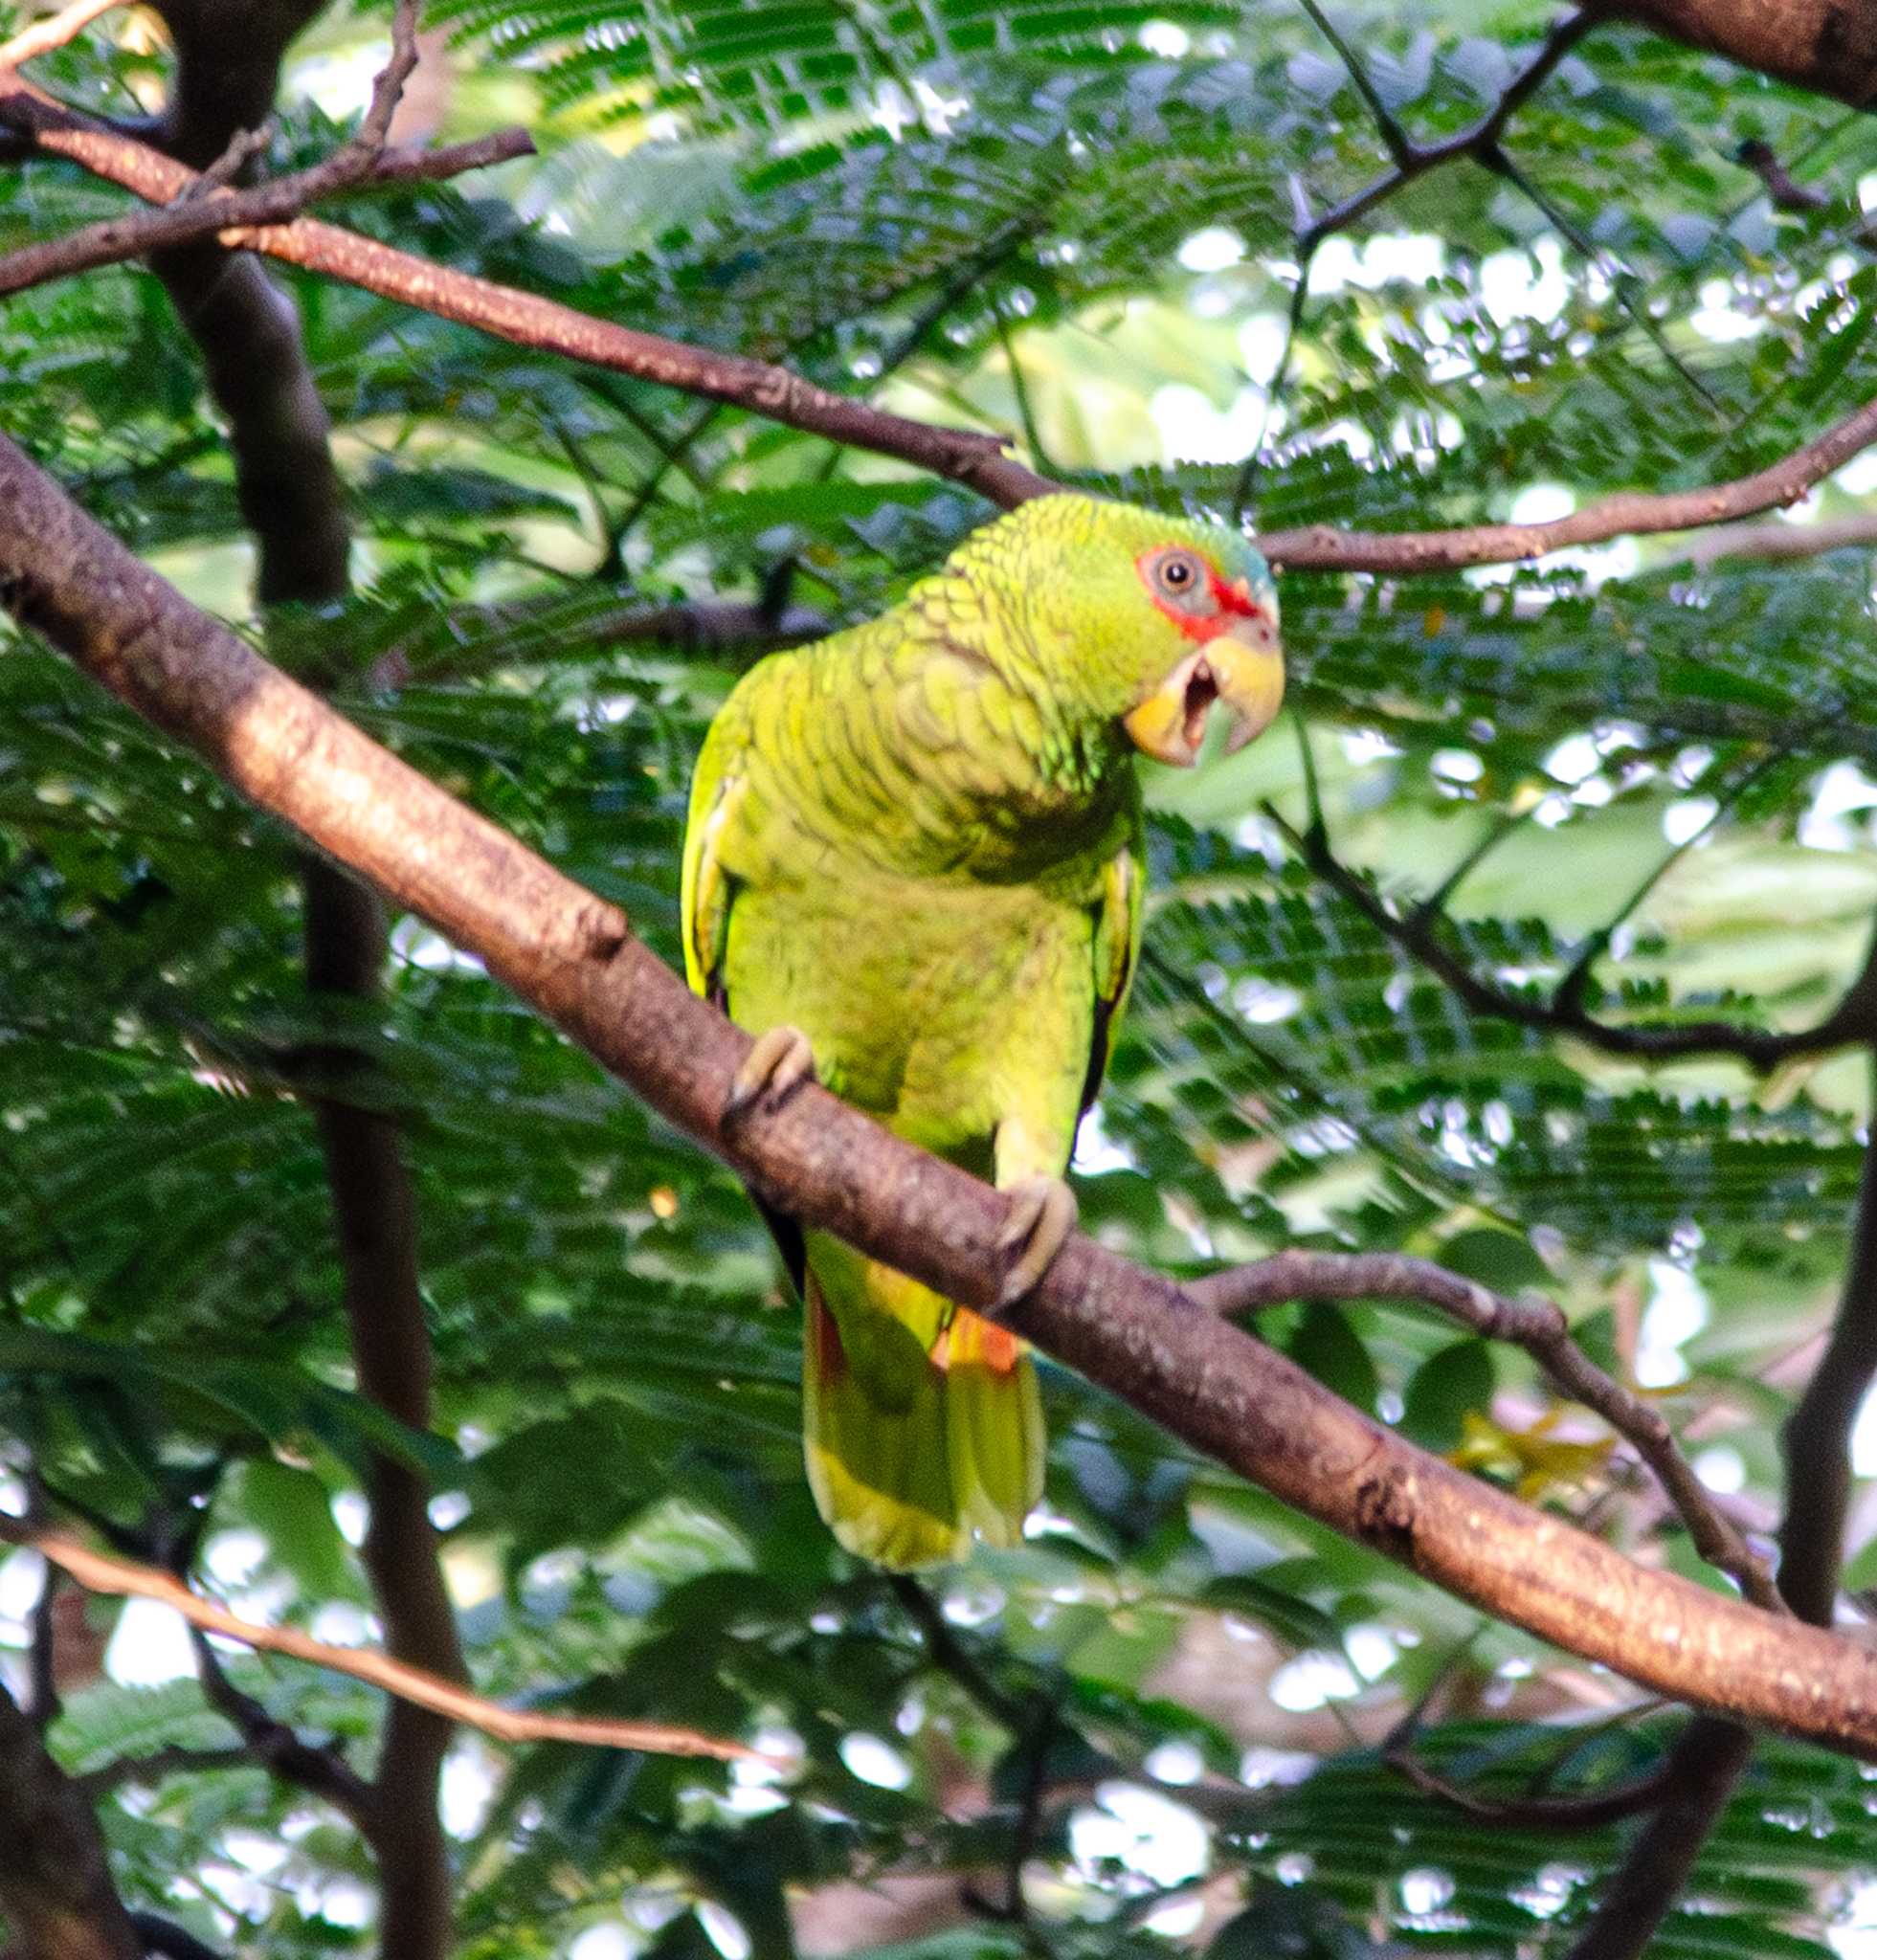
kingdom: Animalia
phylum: Chordata
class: Aves
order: Psittaciformes
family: Psittacidae
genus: Amazona
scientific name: Amazona albifrons
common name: White-fronted amazon
